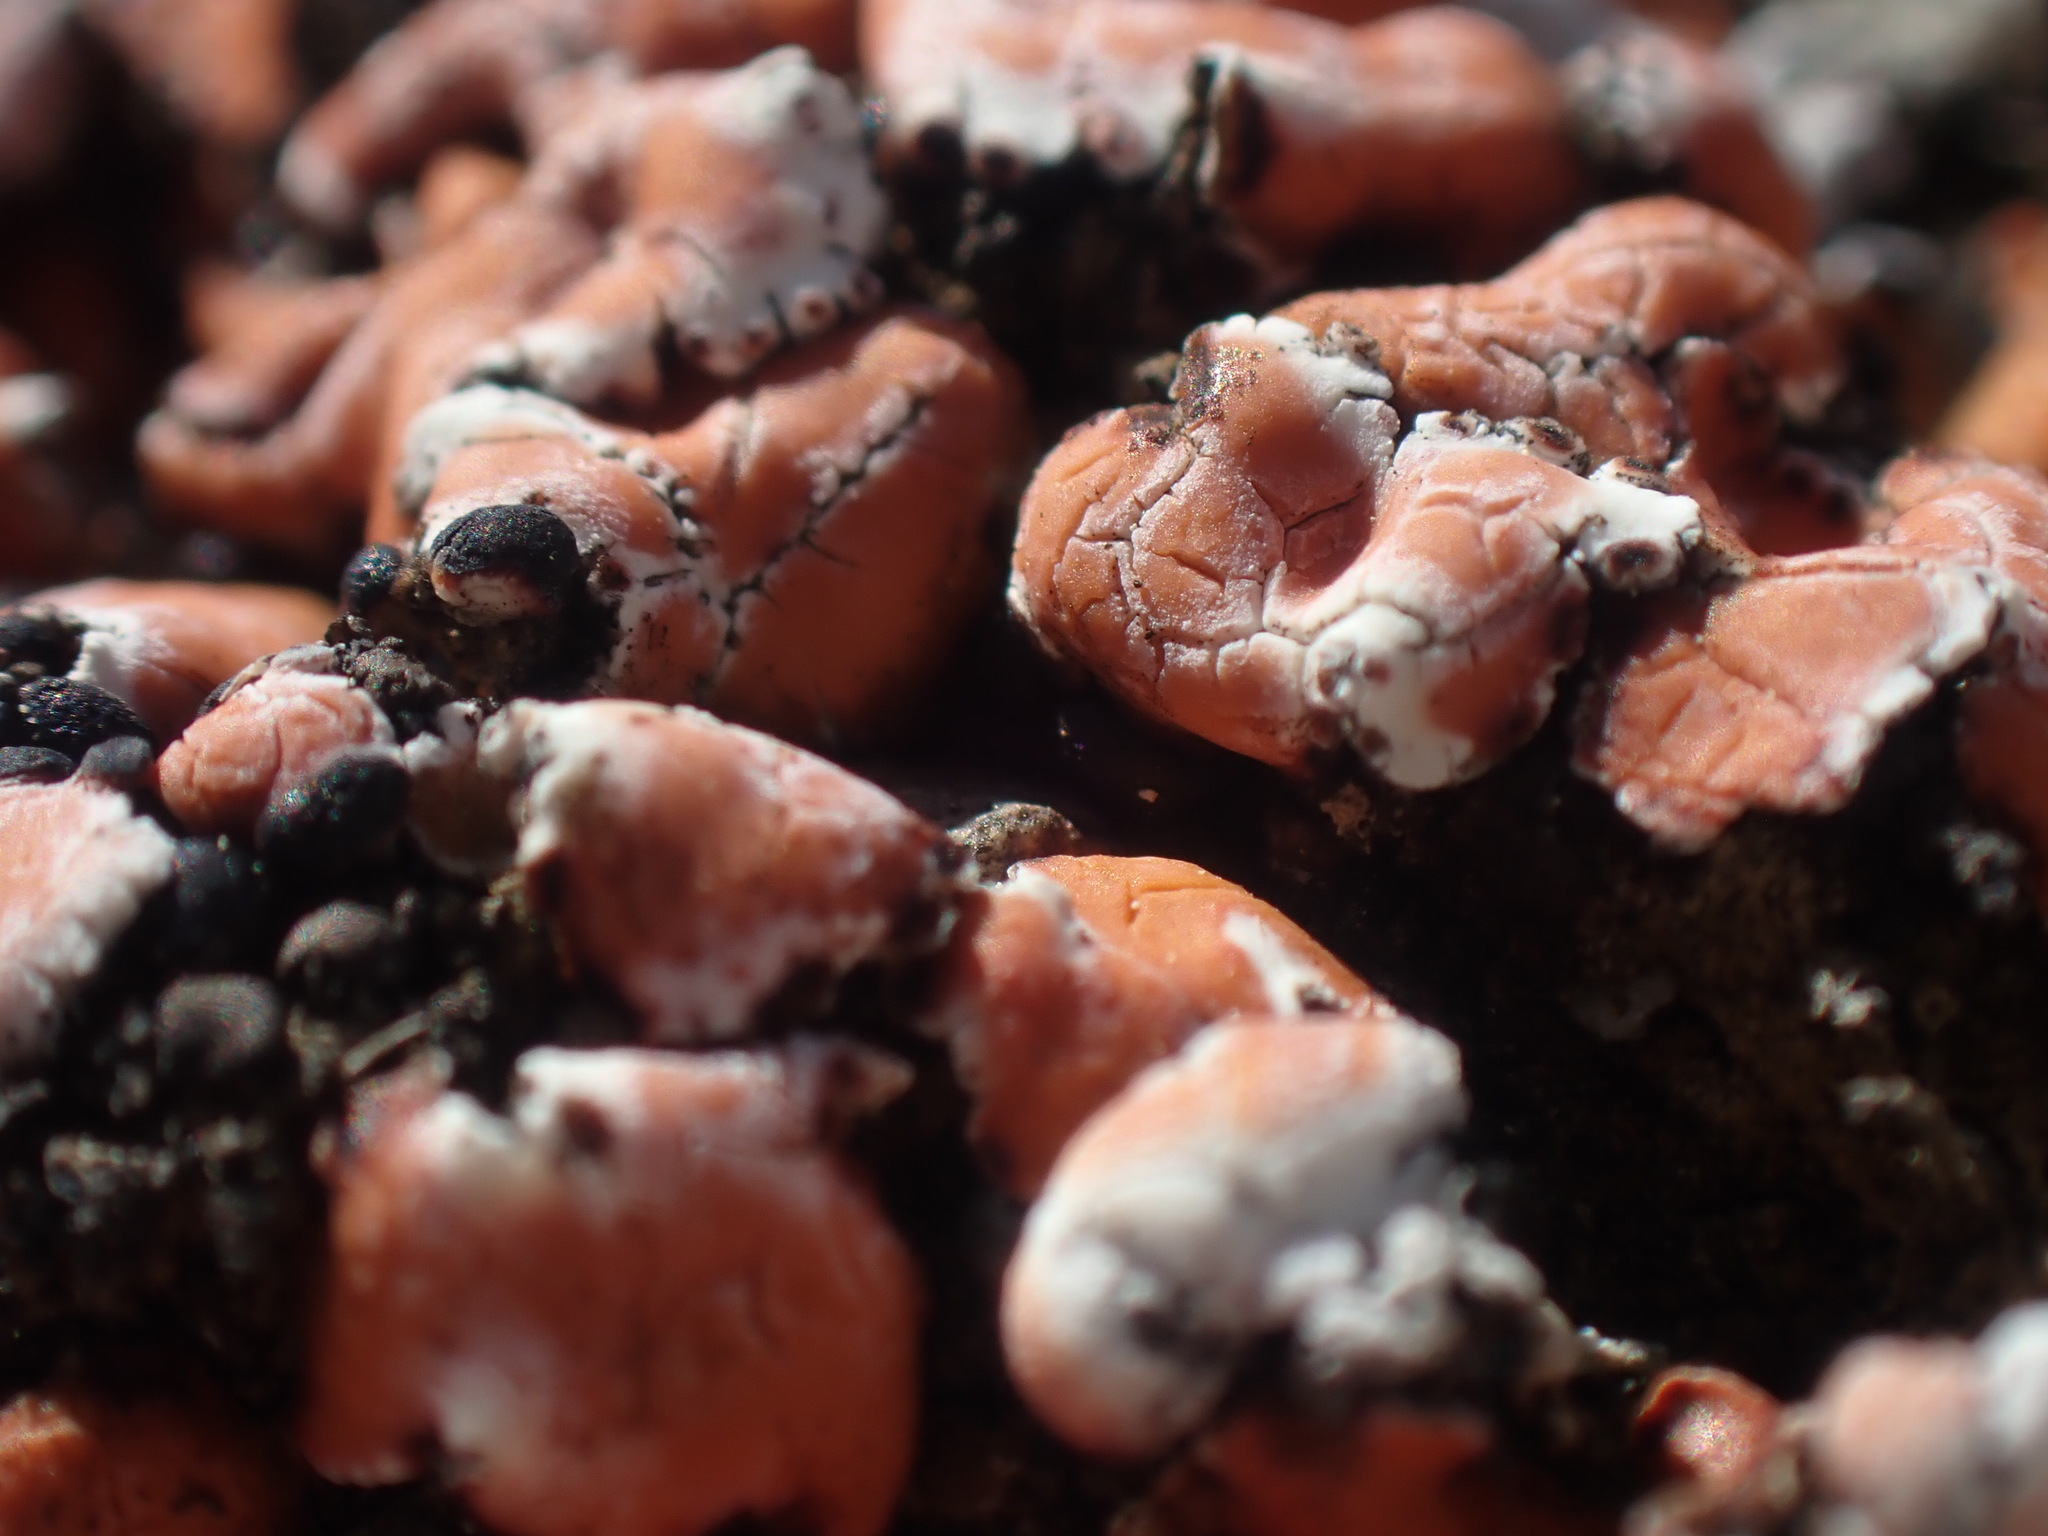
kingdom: Fungi
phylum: Ascomycota
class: Lecanoromycetes
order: Lecanorales
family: Psoraceae
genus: Psora
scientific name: Psora decipiens
